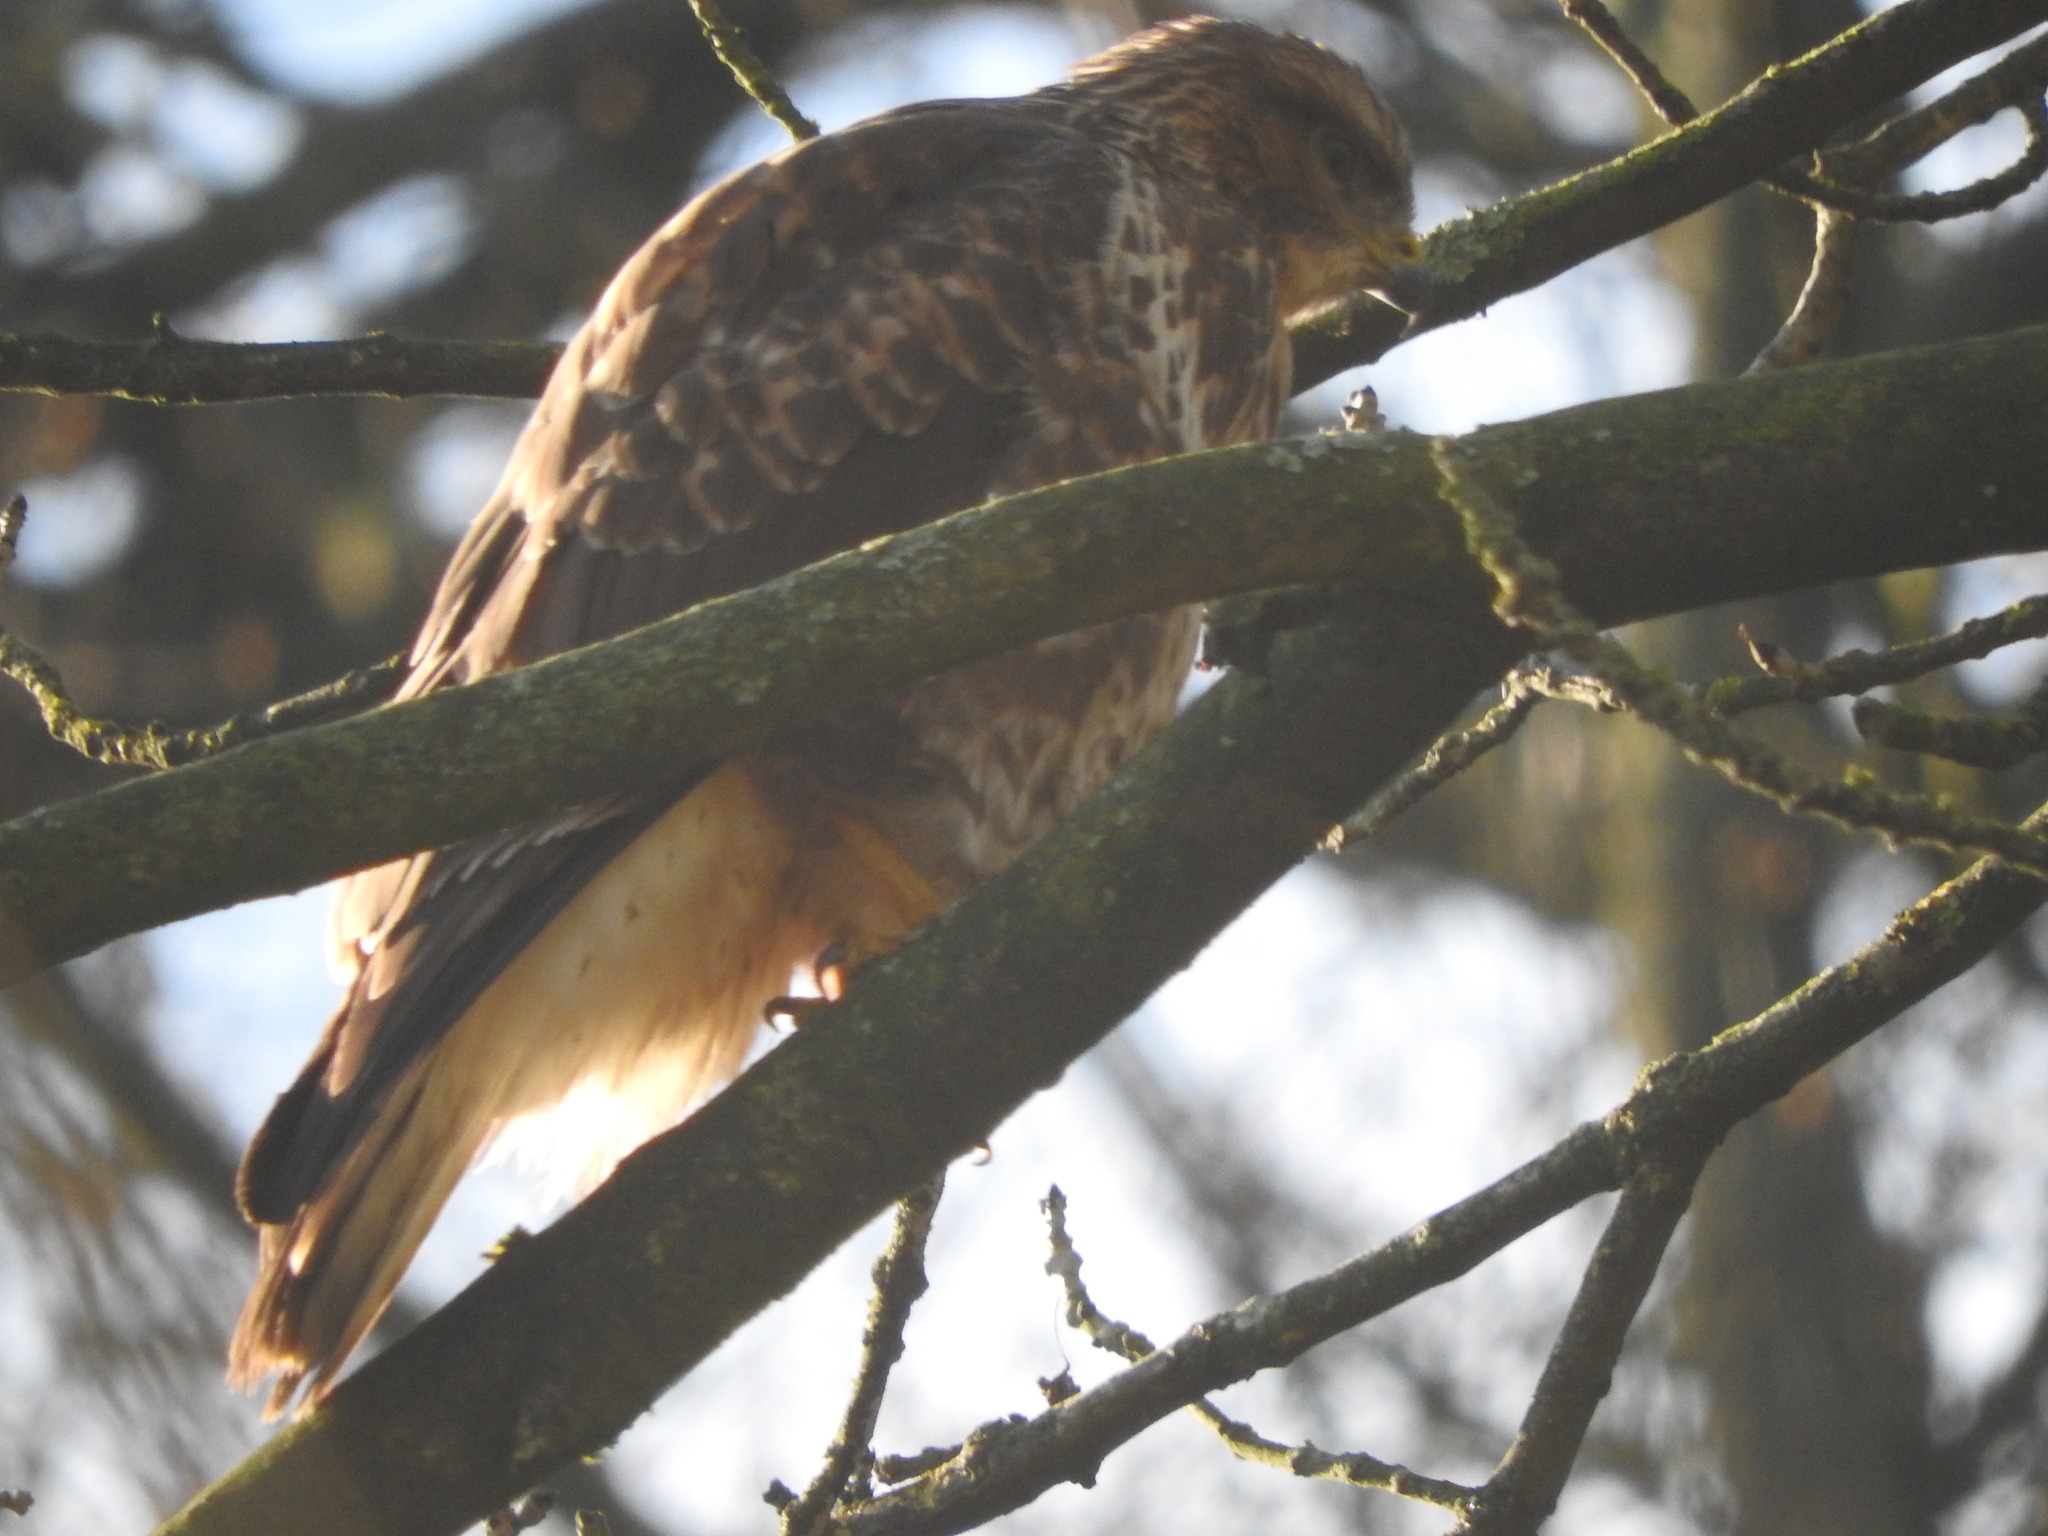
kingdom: Animalia
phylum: Chordata
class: Aves
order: Accipitriformes
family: Accipitridae
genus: Buteo
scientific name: Buteo buteo
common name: Common buzzard
